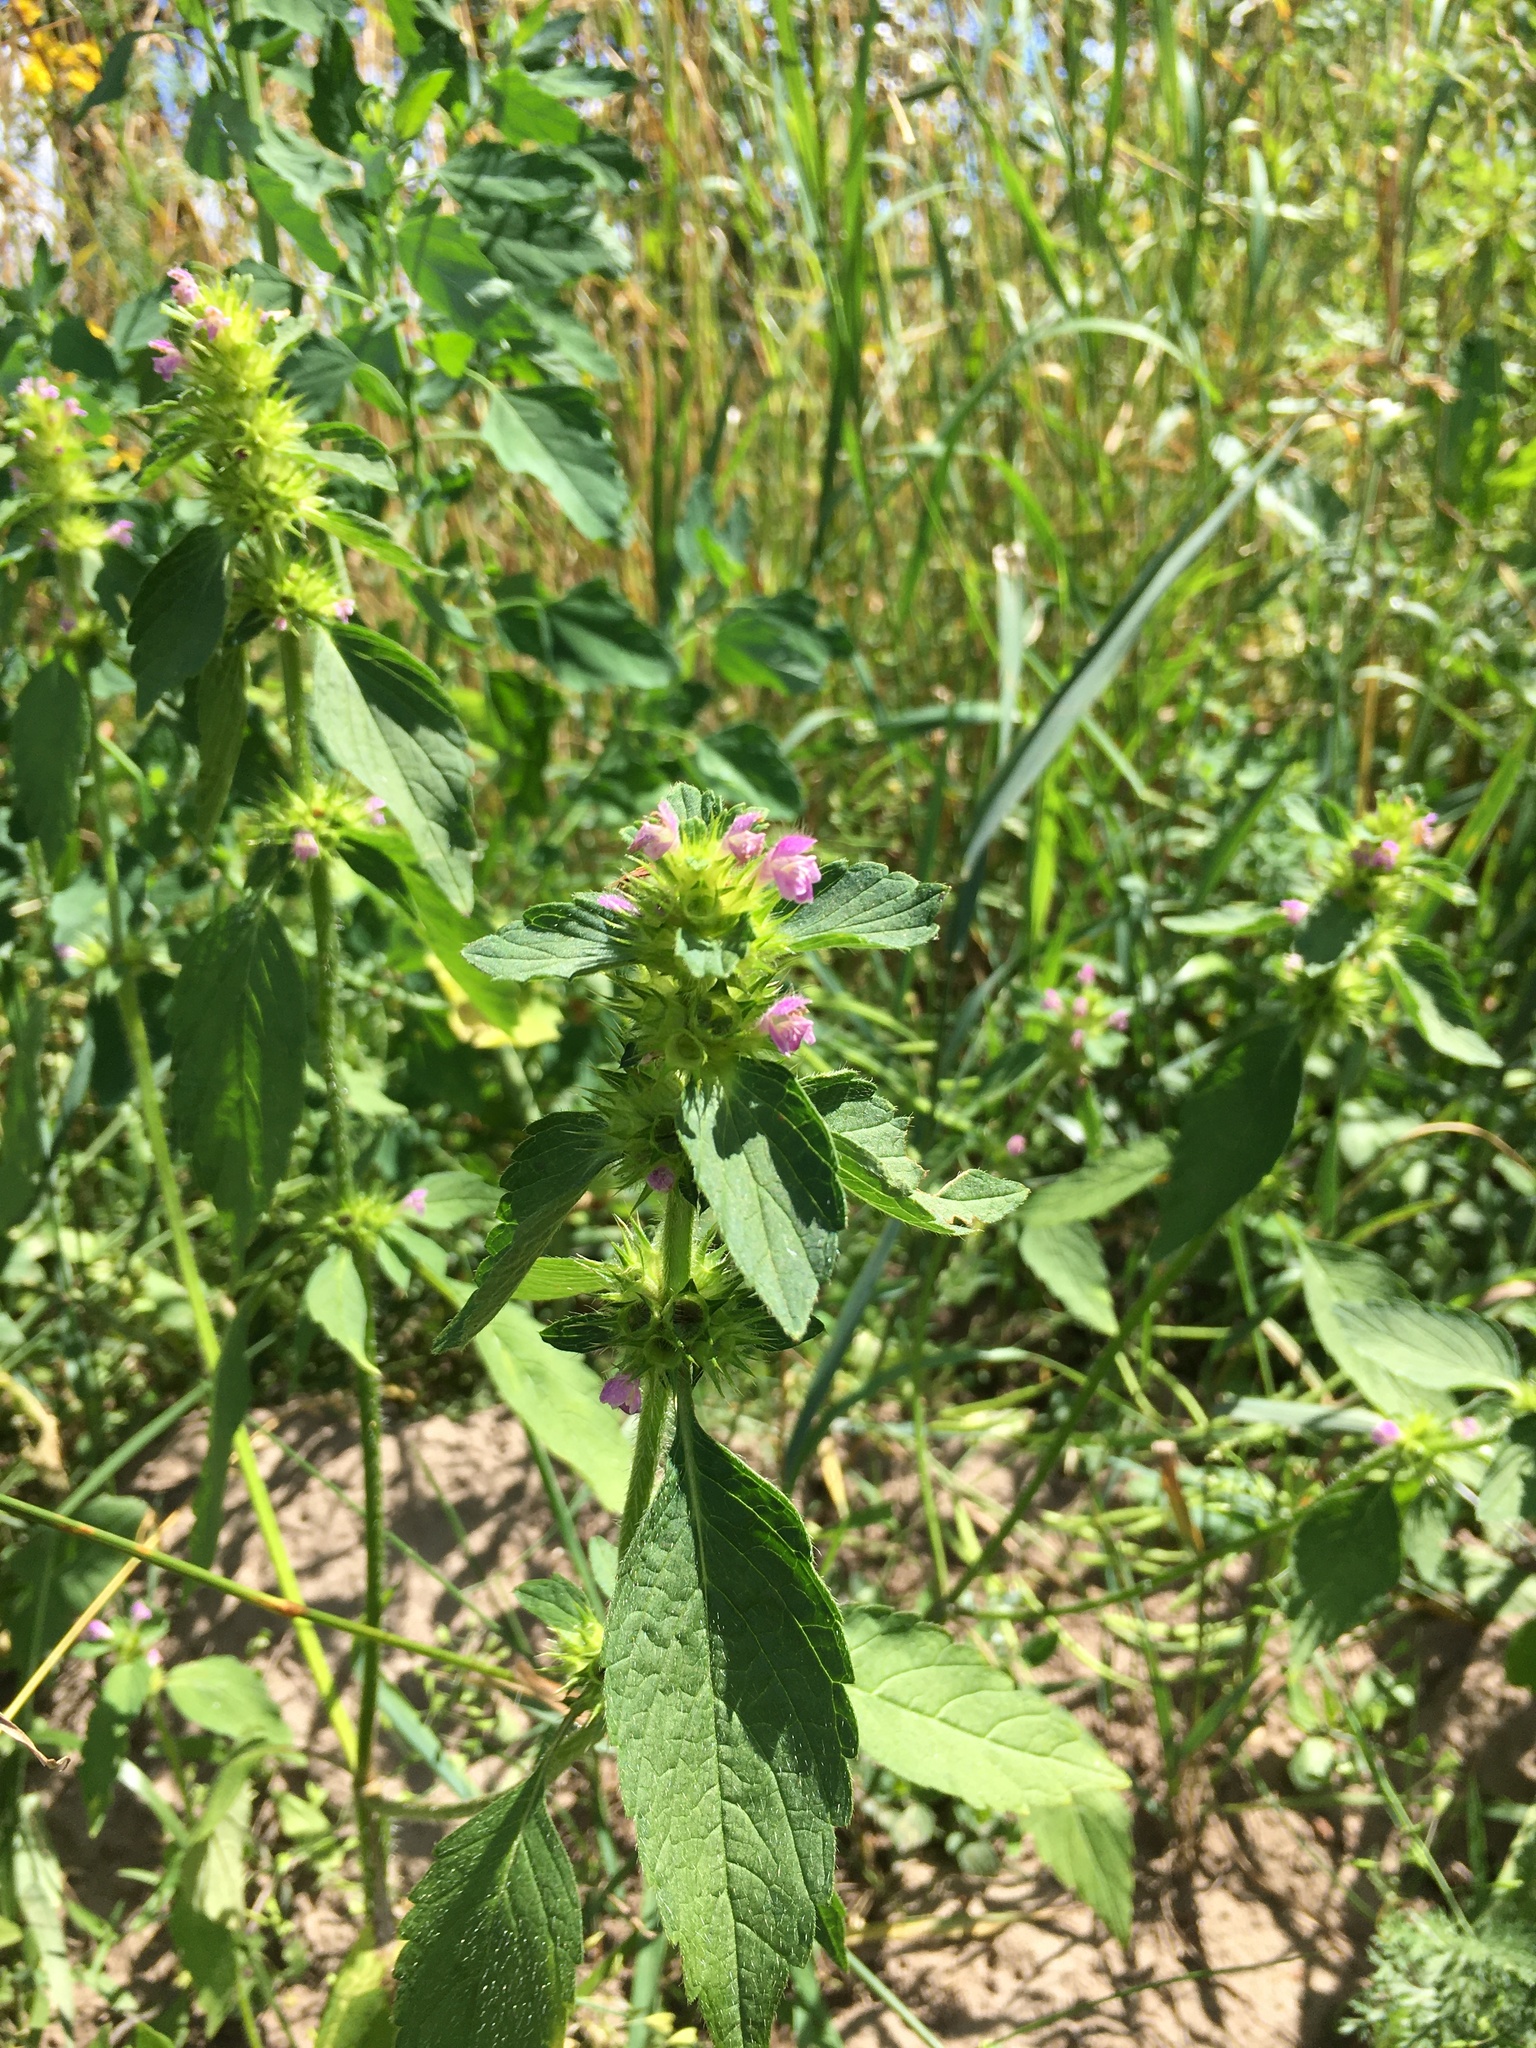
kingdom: Plantae
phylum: Tracheophyta
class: Magnoliopsida
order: Lamiales
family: Lamiaceae
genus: Galeopsis
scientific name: Galeopsis bifida
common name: Bifid hemp-nettle
